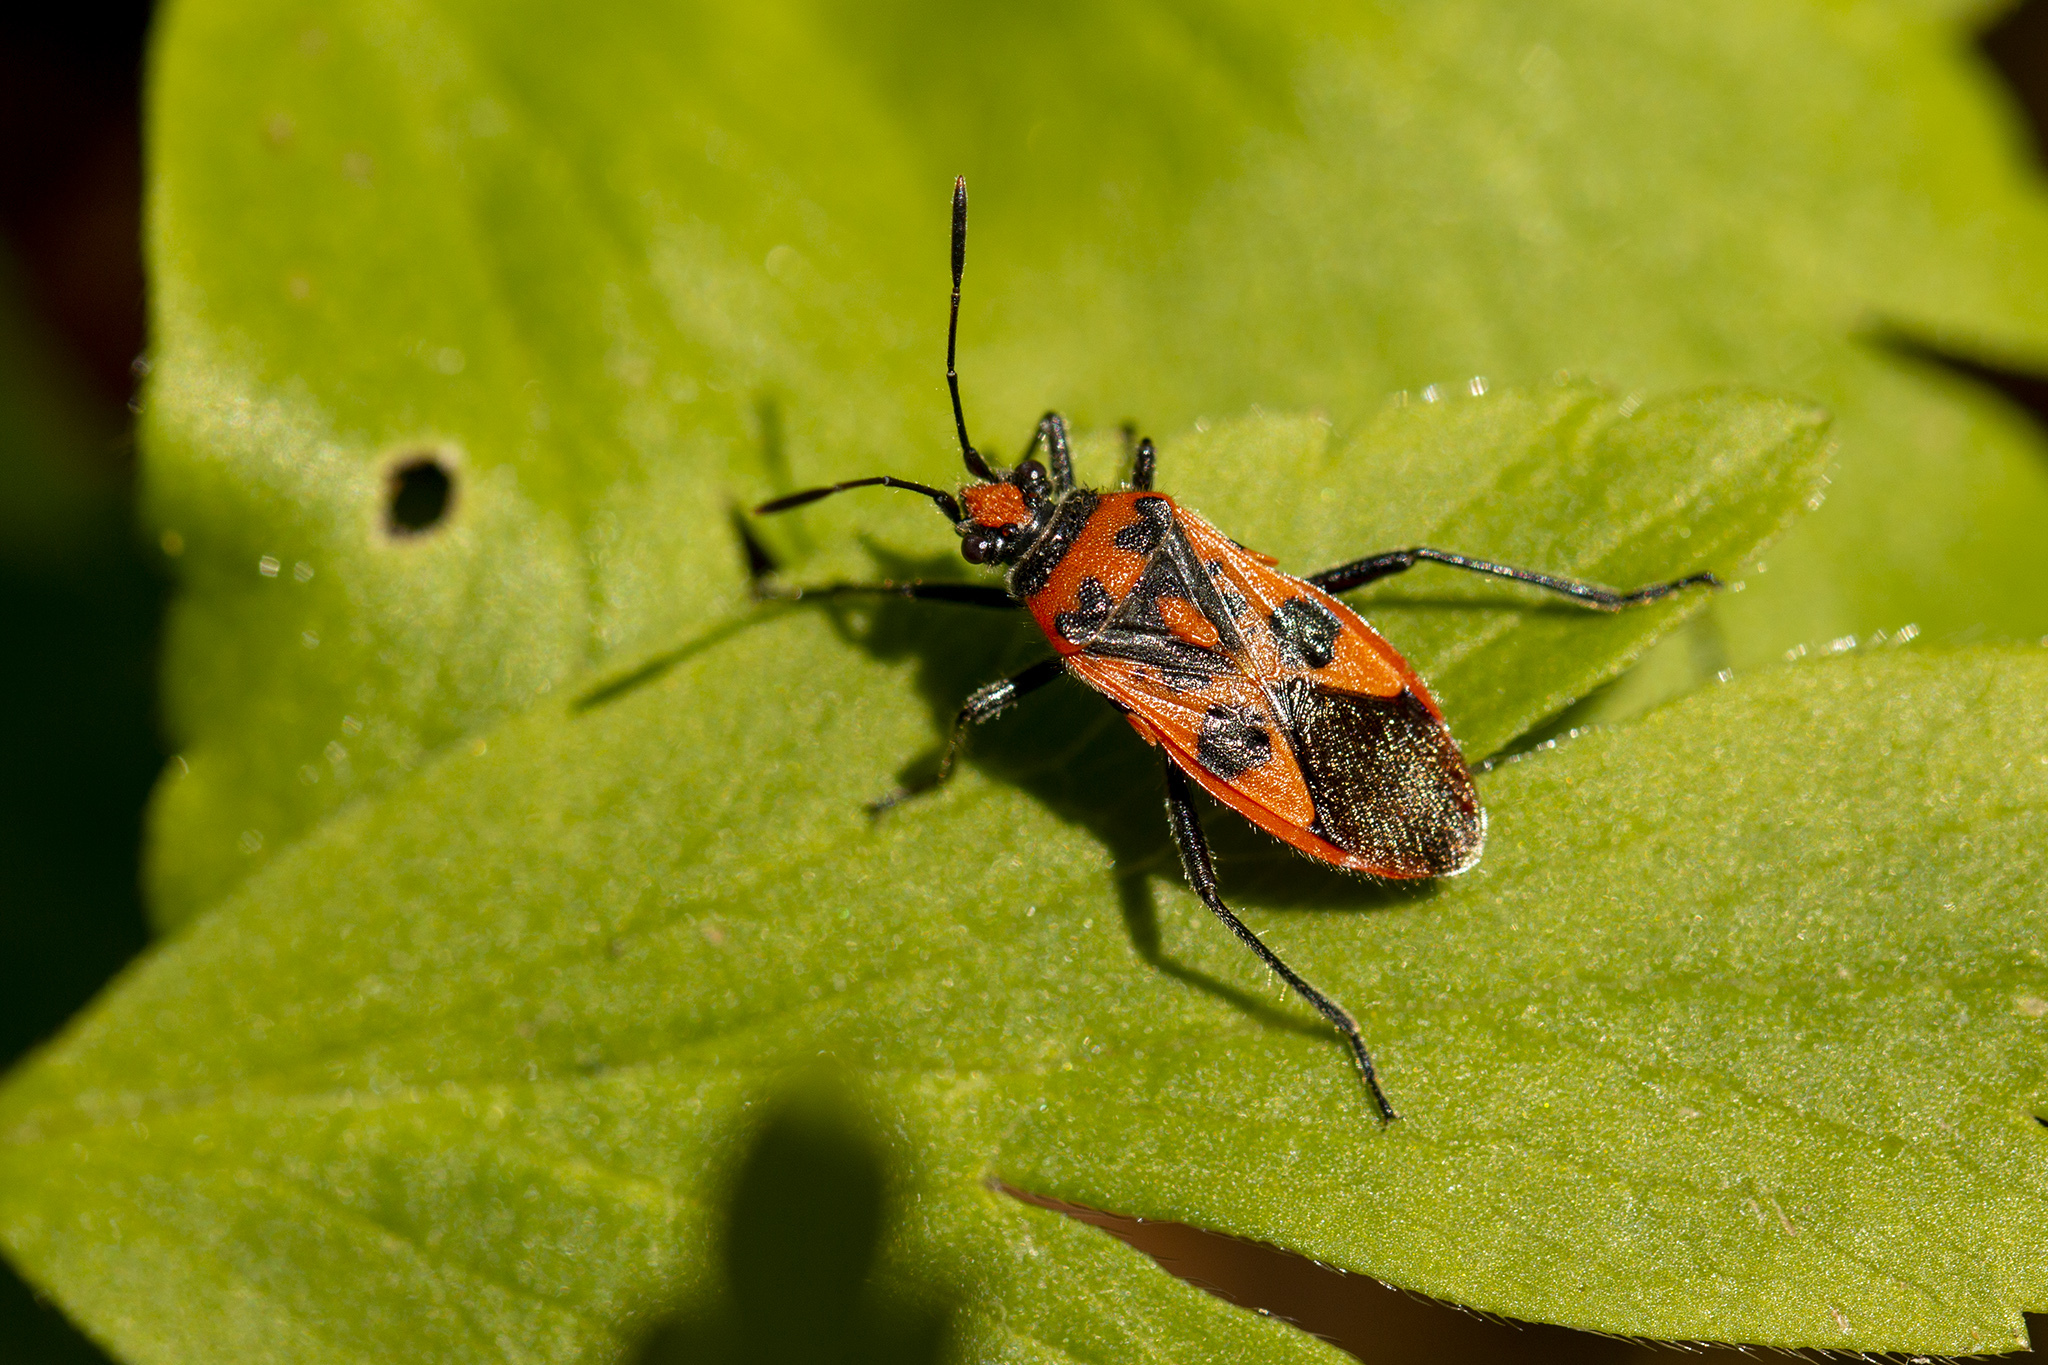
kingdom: Animalia
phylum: Arthropoda
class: Insecta
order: Hemiptera
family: Rhopalidae
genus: Corizus
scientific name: Corizus hyoscyami
